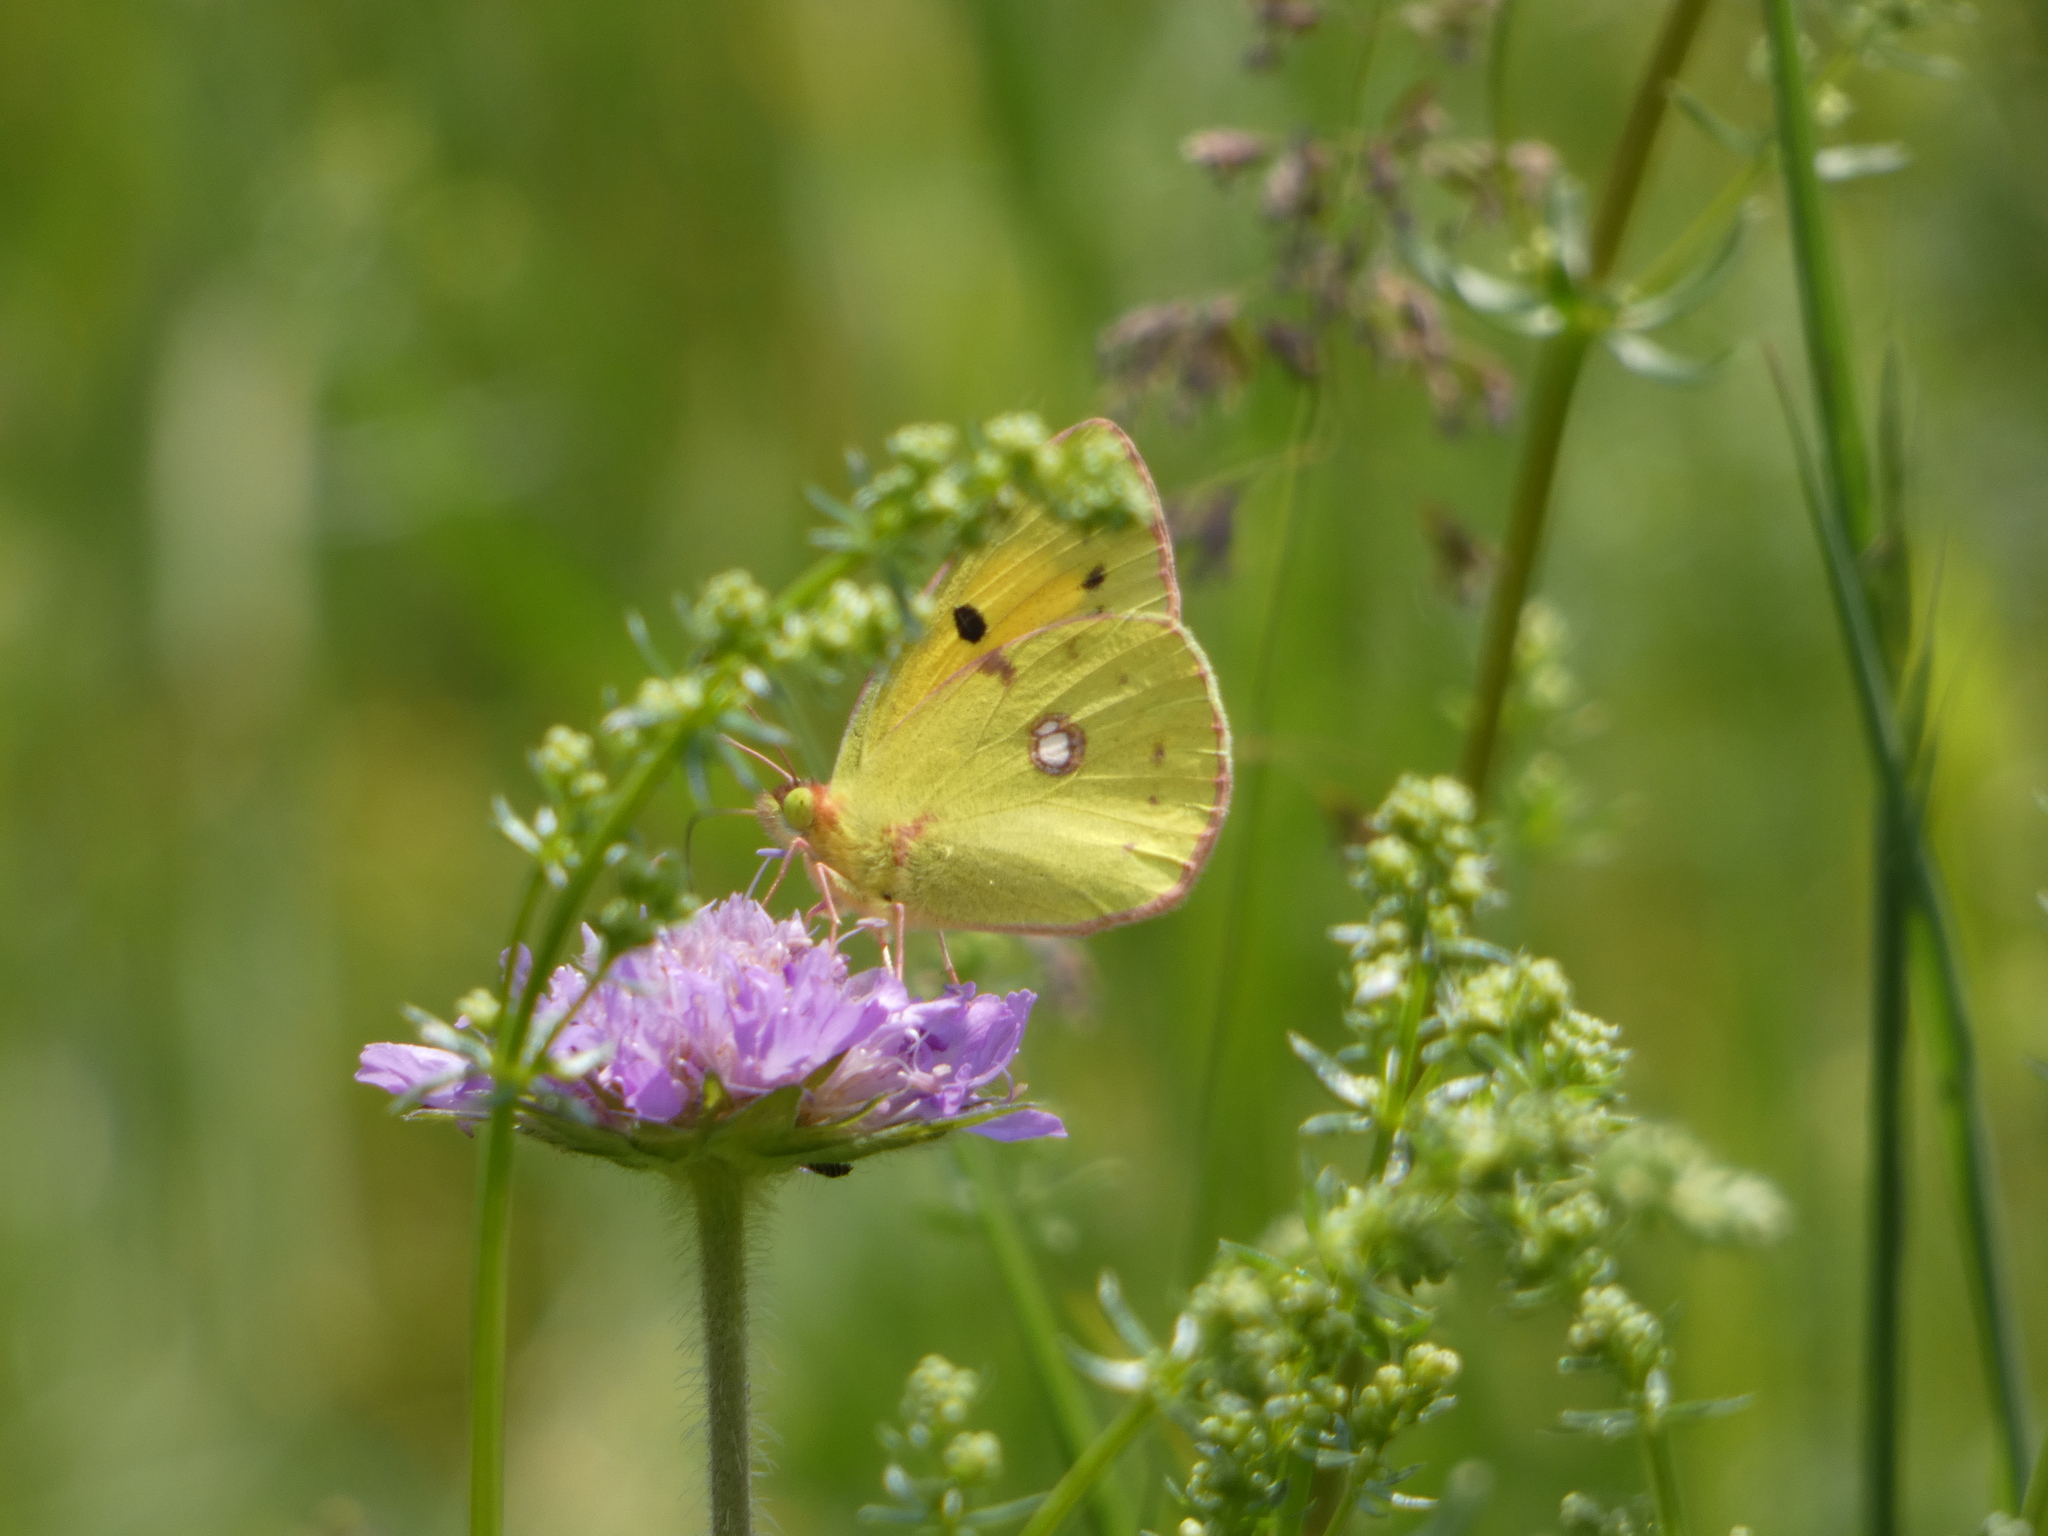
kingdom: Animalia
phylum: Arthropoda
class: Insecta
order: Lepidoptera
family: Pieridae
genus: Colias
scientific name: Colias croceus
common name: Clouded yellow
